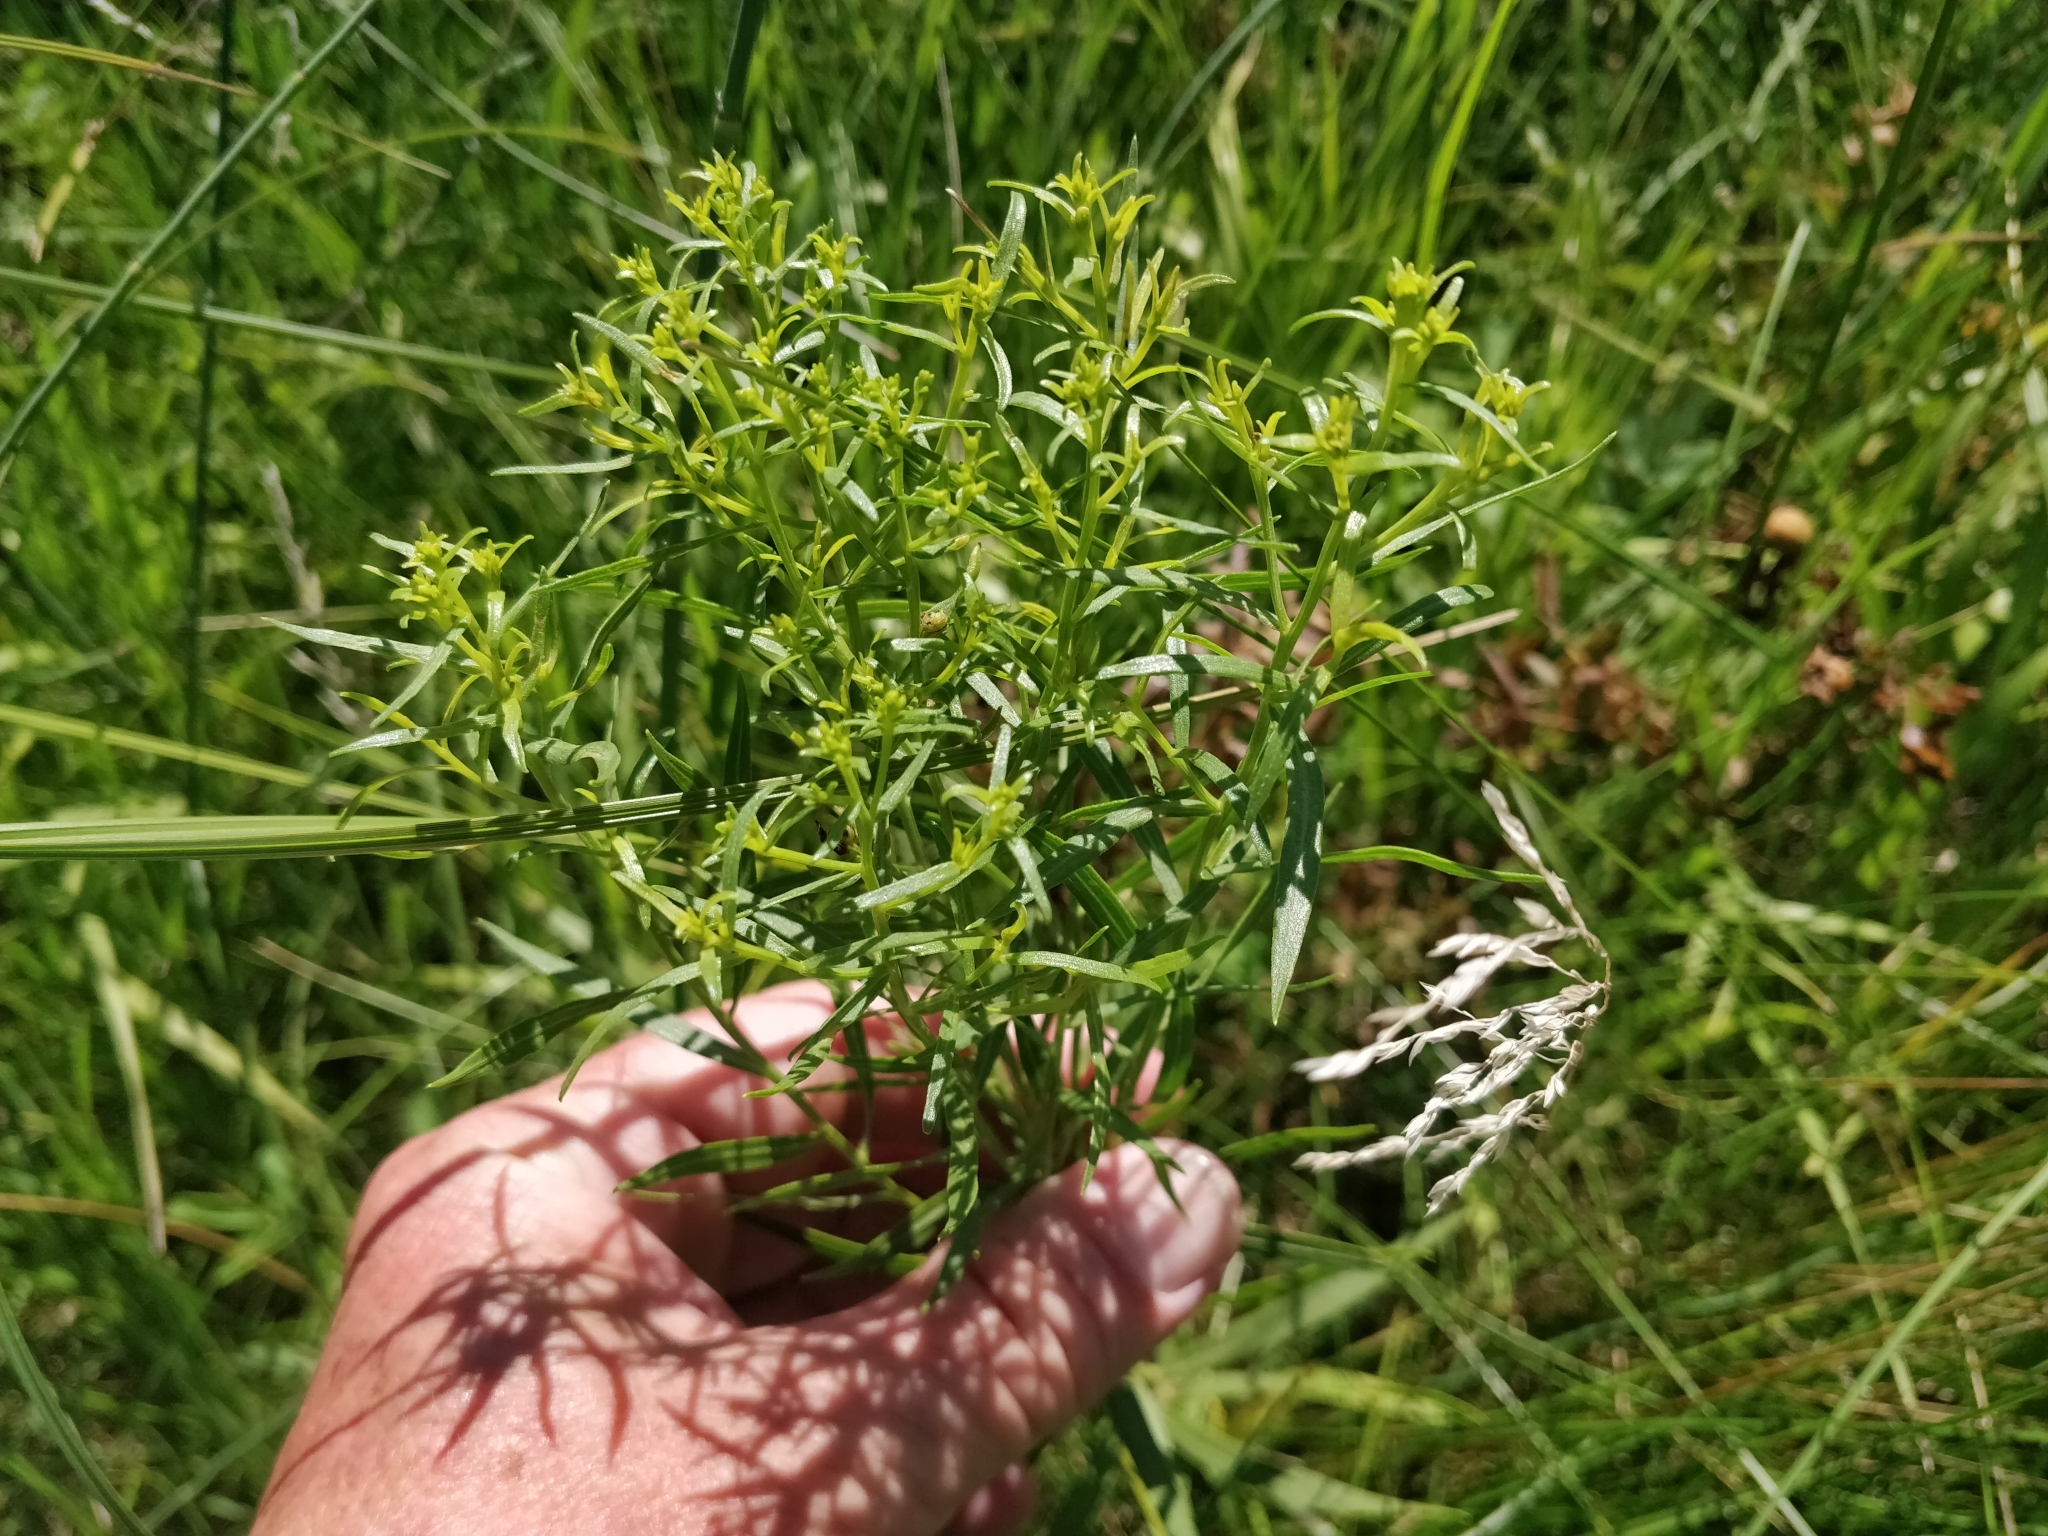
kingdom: Plantae
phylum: Tracheophyta
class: Magnoliopsida
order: Asterales
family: Asteraceae
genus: Euthamia
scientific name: Euthamia graminifolia
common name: Common goldentop
